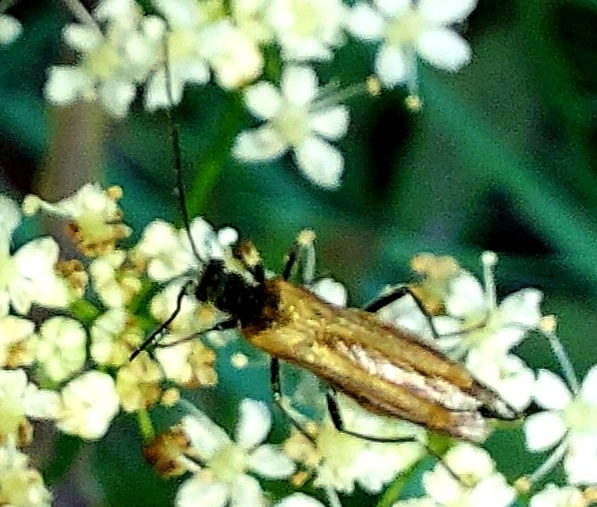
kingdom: Animalia
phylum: Arthropoda
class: Insecta
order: Coleoptera
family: Oedemeridae
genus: Oedemera
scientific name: Oedemera femorata
